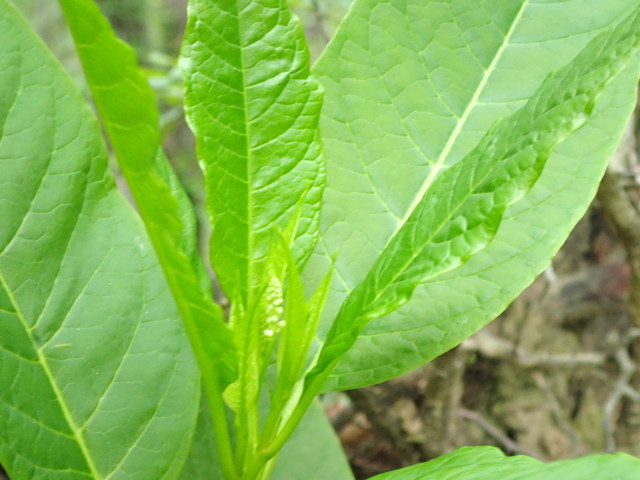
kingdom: Plantae
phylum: Tracheophyta
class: Magnoliopsida
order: Caryophyllales
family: Phytolaccaceae
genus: Phytolacca
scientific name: Phytolacca americana
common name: American pokeweed
